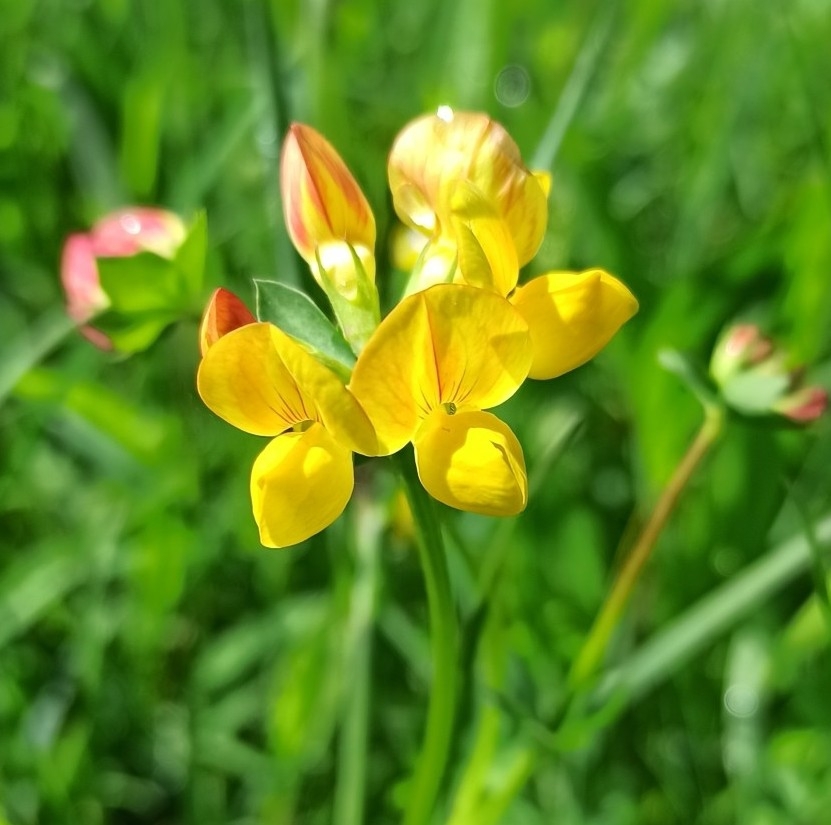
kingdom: Plantae
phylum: Tracheophyta
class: Magnoliopsida
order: Fabales
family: Fabaceae
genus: Lotus
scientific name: Lotus corniculatus
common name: Common bird's-foot-trefoil
